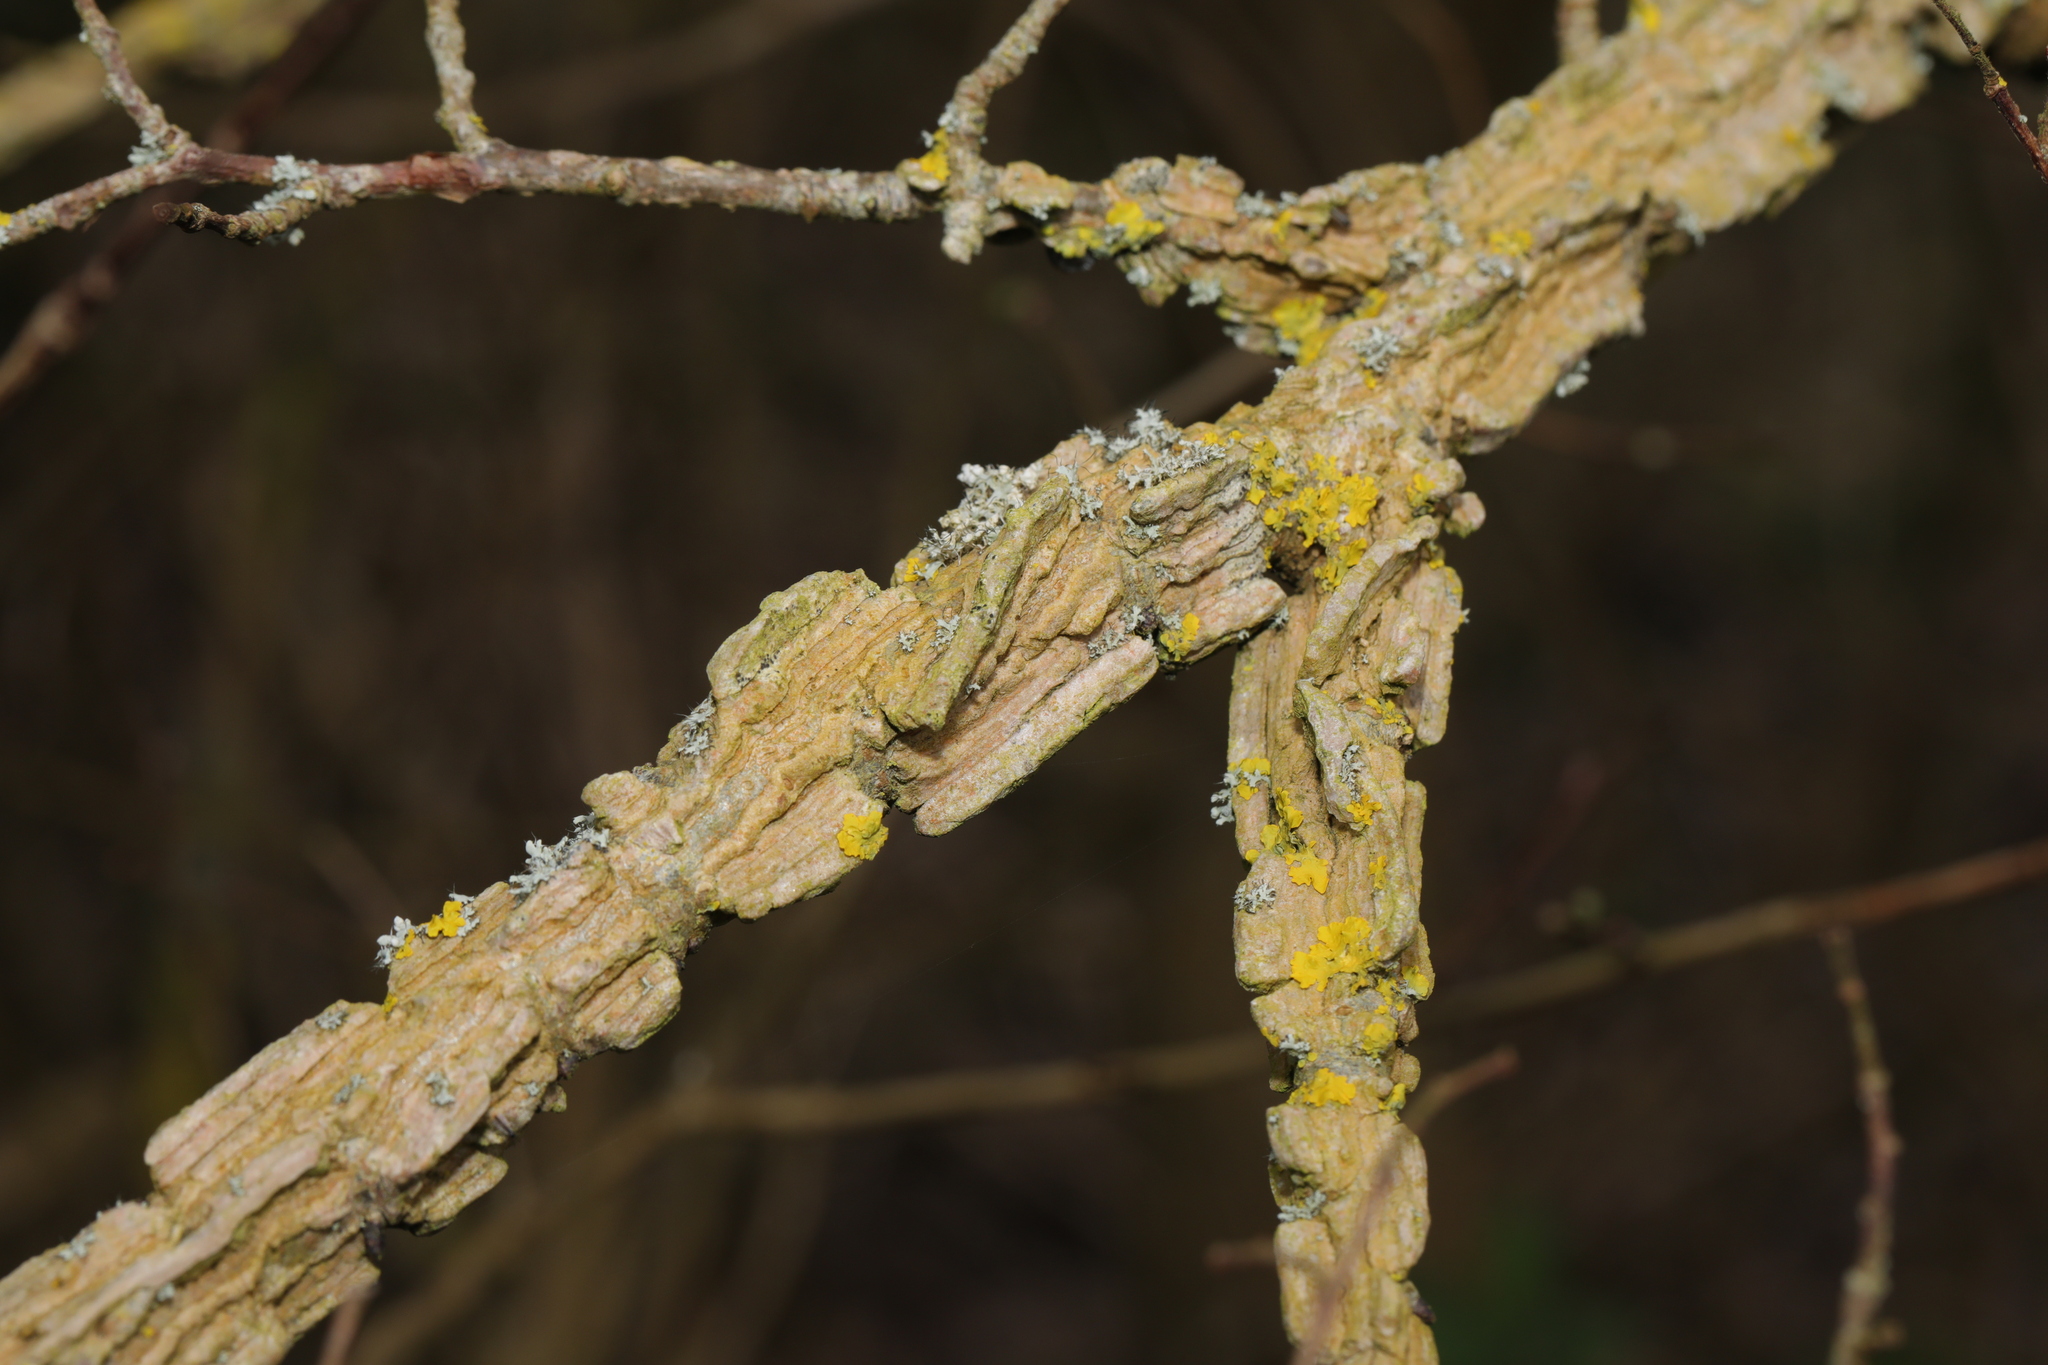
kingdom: Plantae
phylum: Tracheophyta
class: Magnoliopsida
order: Rosales
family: Ulmaceae
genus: Ulmus
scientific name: Ulmus minor
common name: Small-leaved elm
